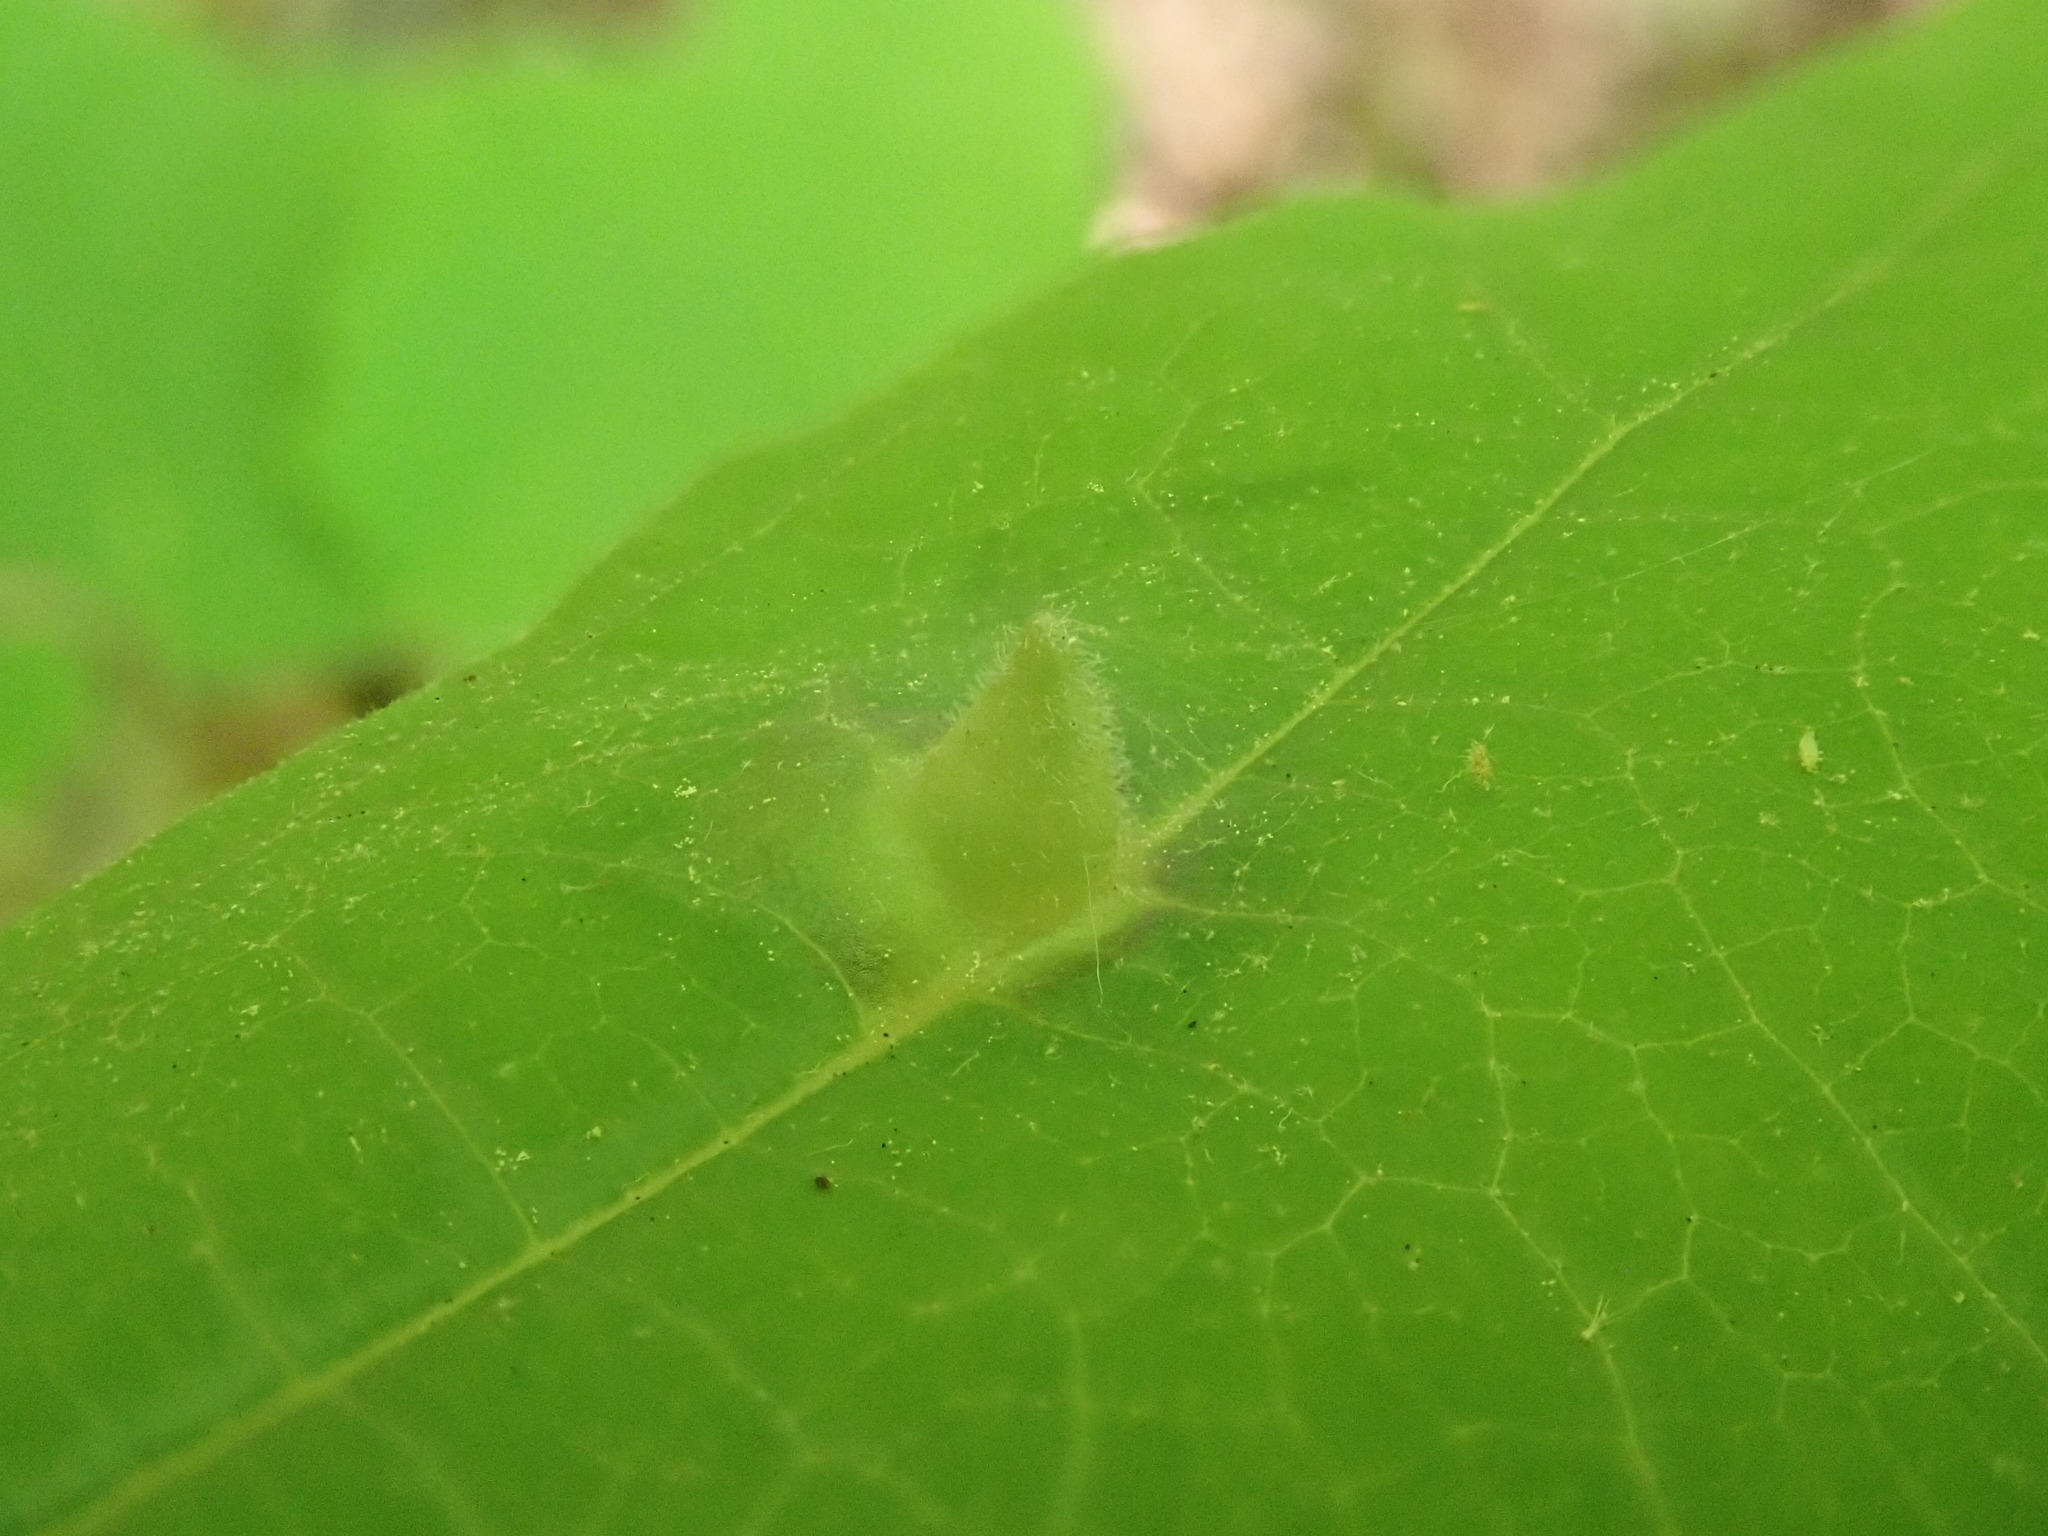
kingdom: Animalia
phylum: Arthropoda
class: Insecta
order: Hemiptera
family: Aphididae
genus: Hormaphis
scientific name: Hormaphis hamamelidis
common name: Witch-hazel cone gall aphid
